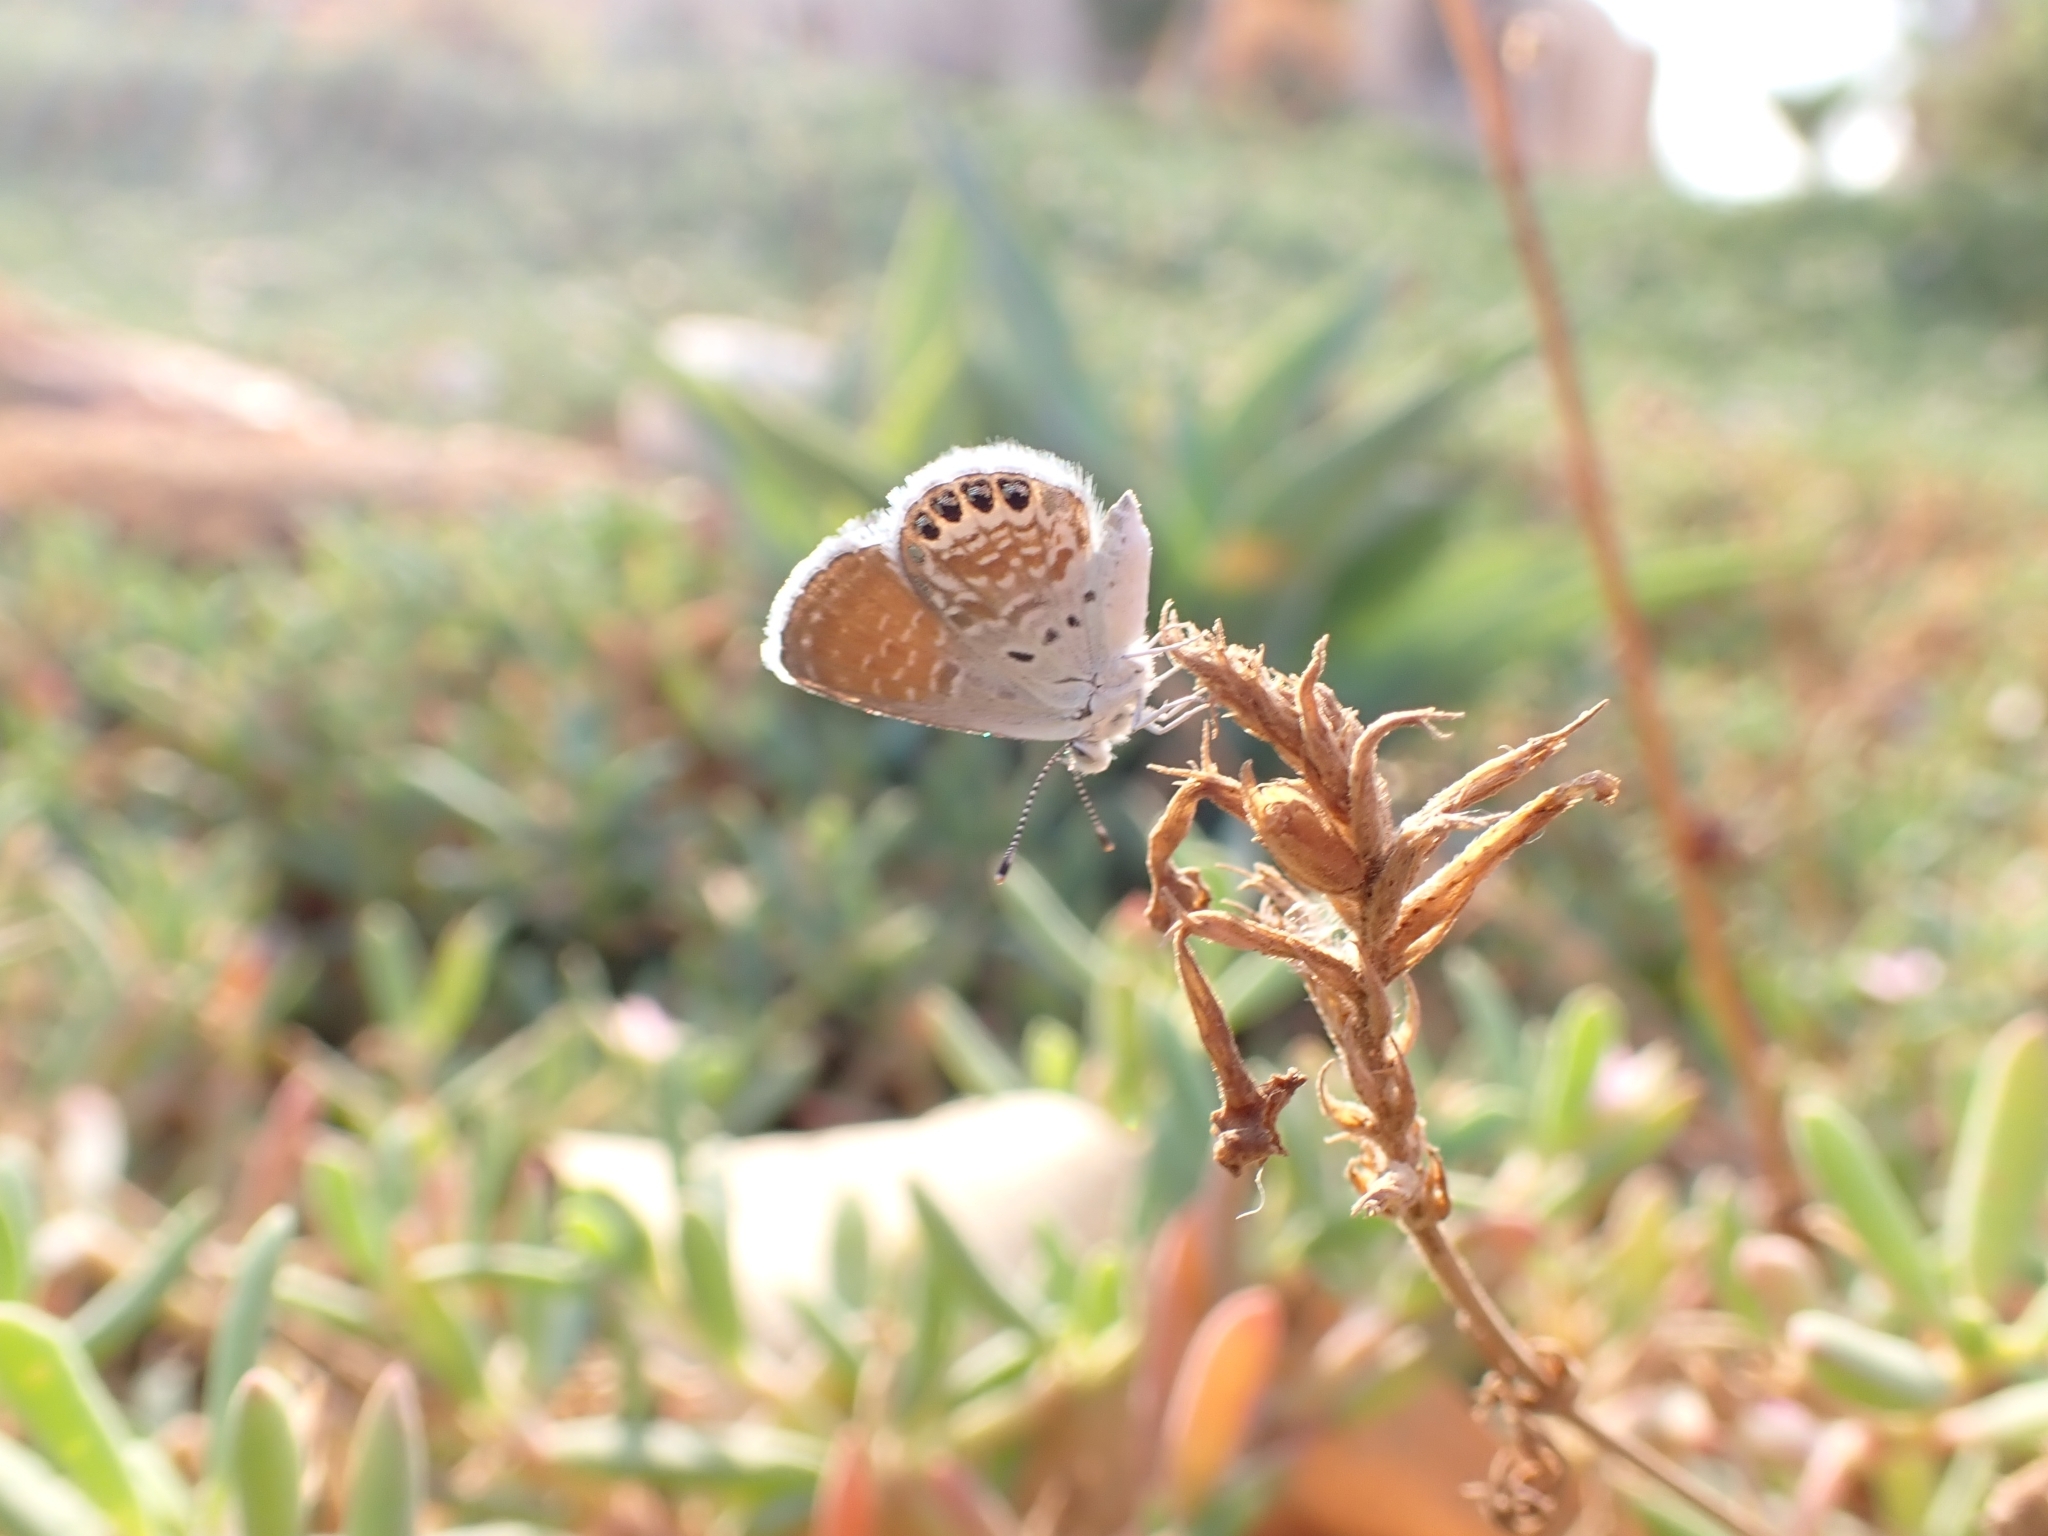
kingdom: Animalia
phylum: Arthropoda
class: Insecta
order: Lepidoptera
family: Lycaenidae
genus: Brephidium
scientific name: Brephidium exilis
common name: Pygmy blue
